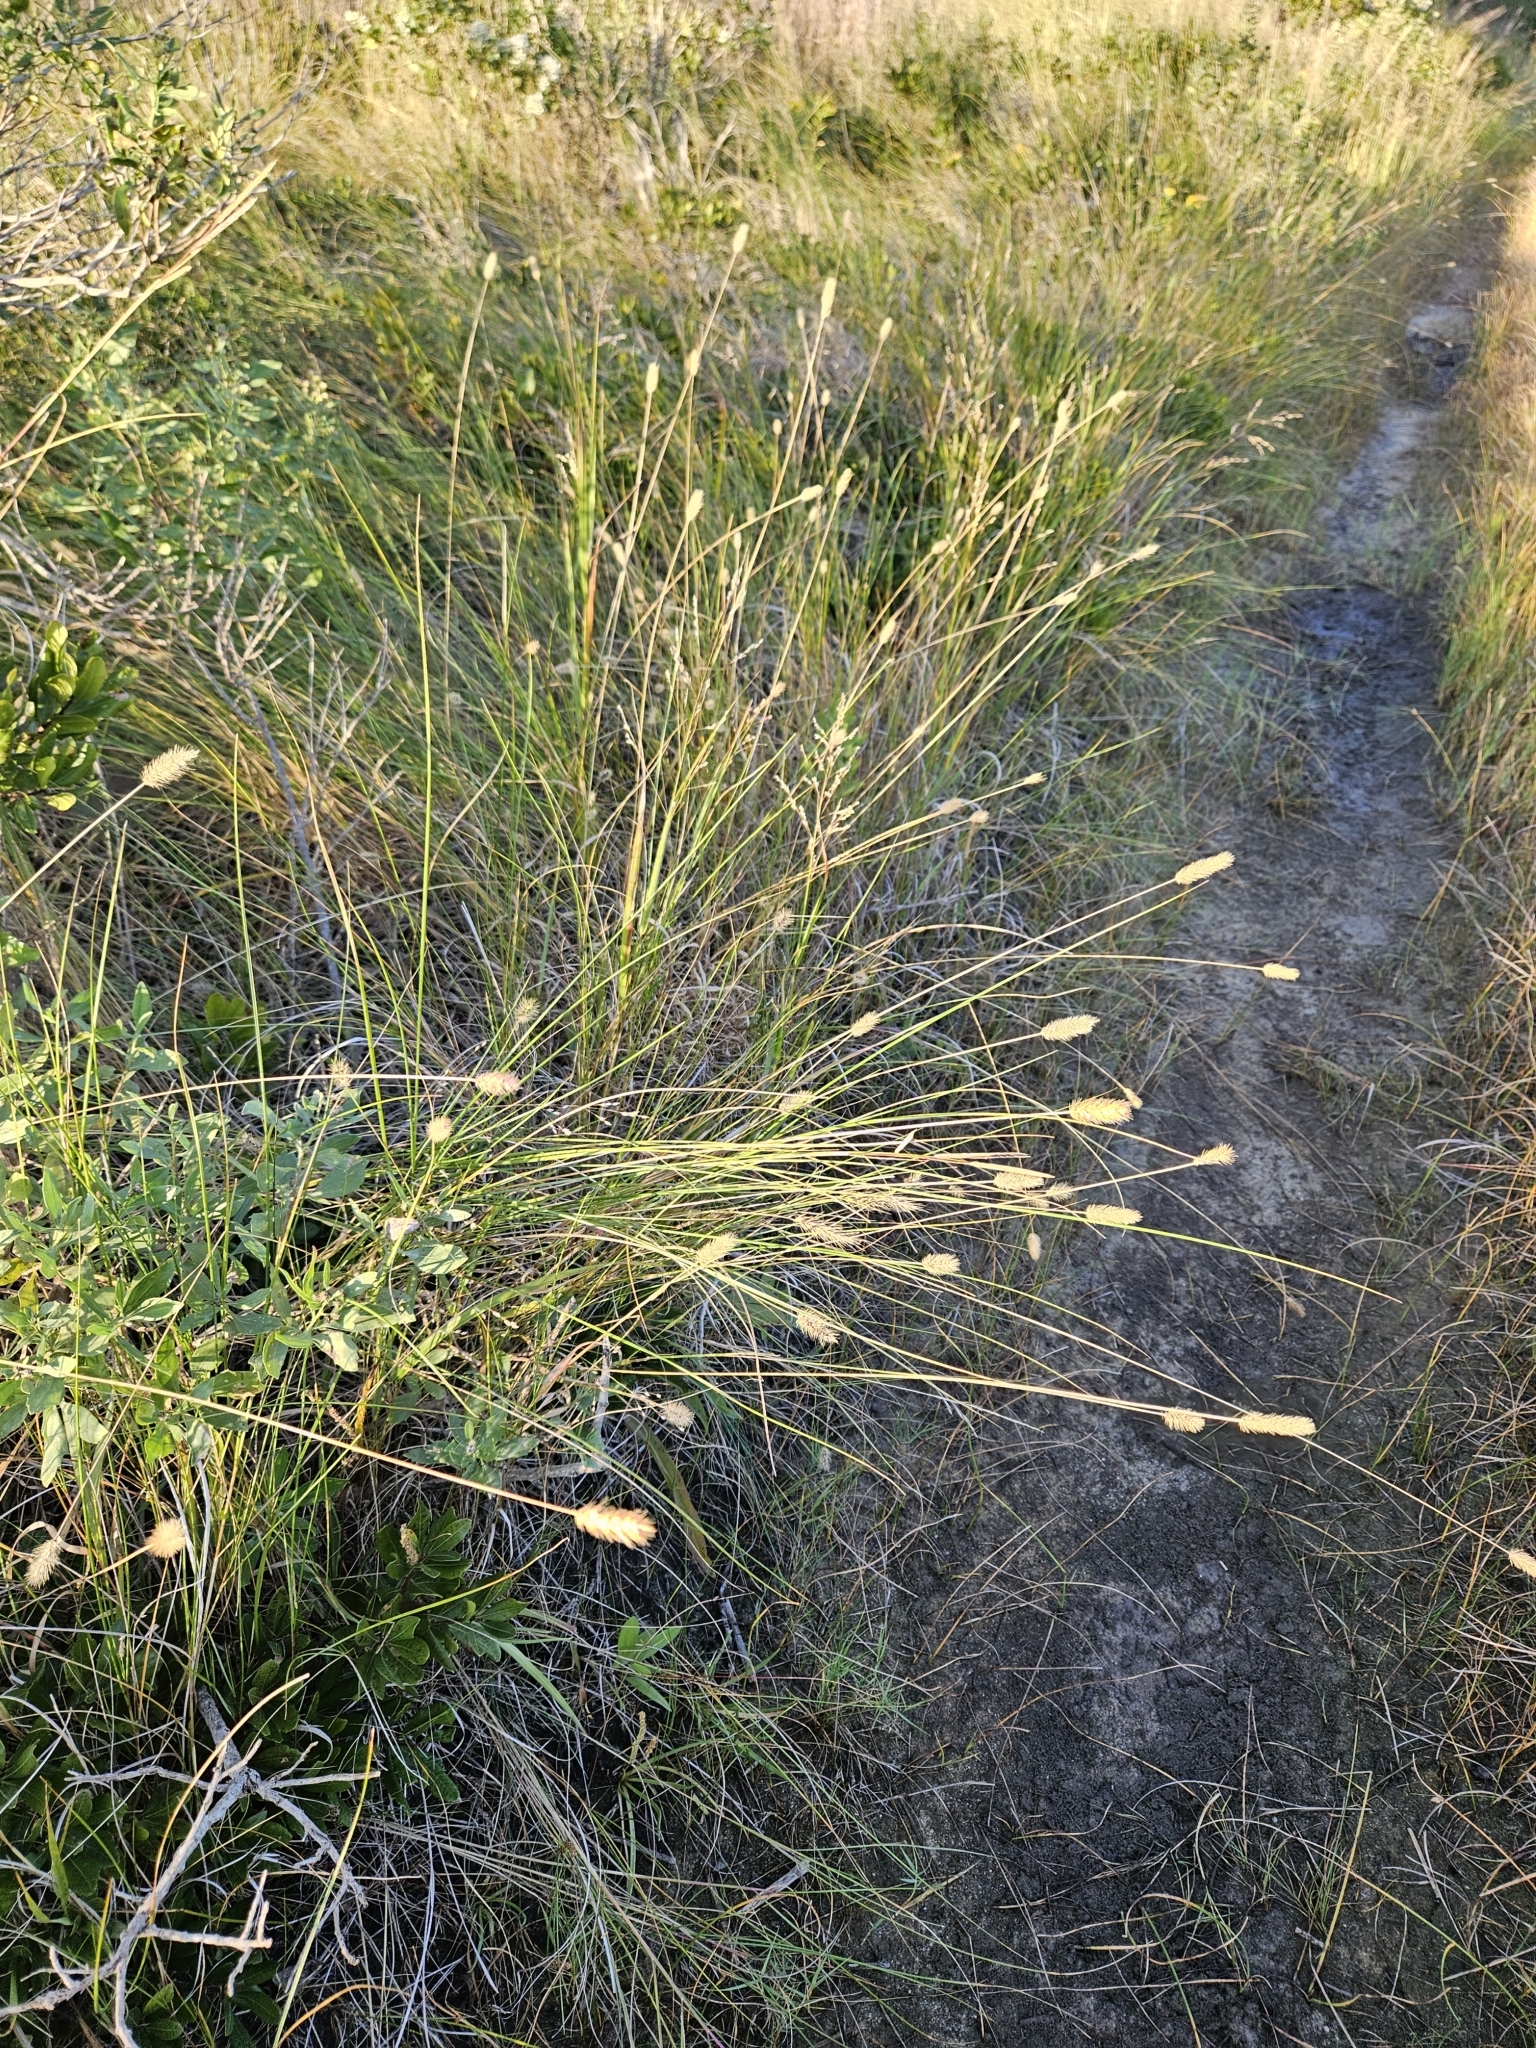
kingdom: Plantae
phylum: Tracheophyta
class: Liliopsida
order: Poales
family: Poaceae
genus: Setaria
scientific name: Setaria parviflora
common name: Knotroot bristle-grass
